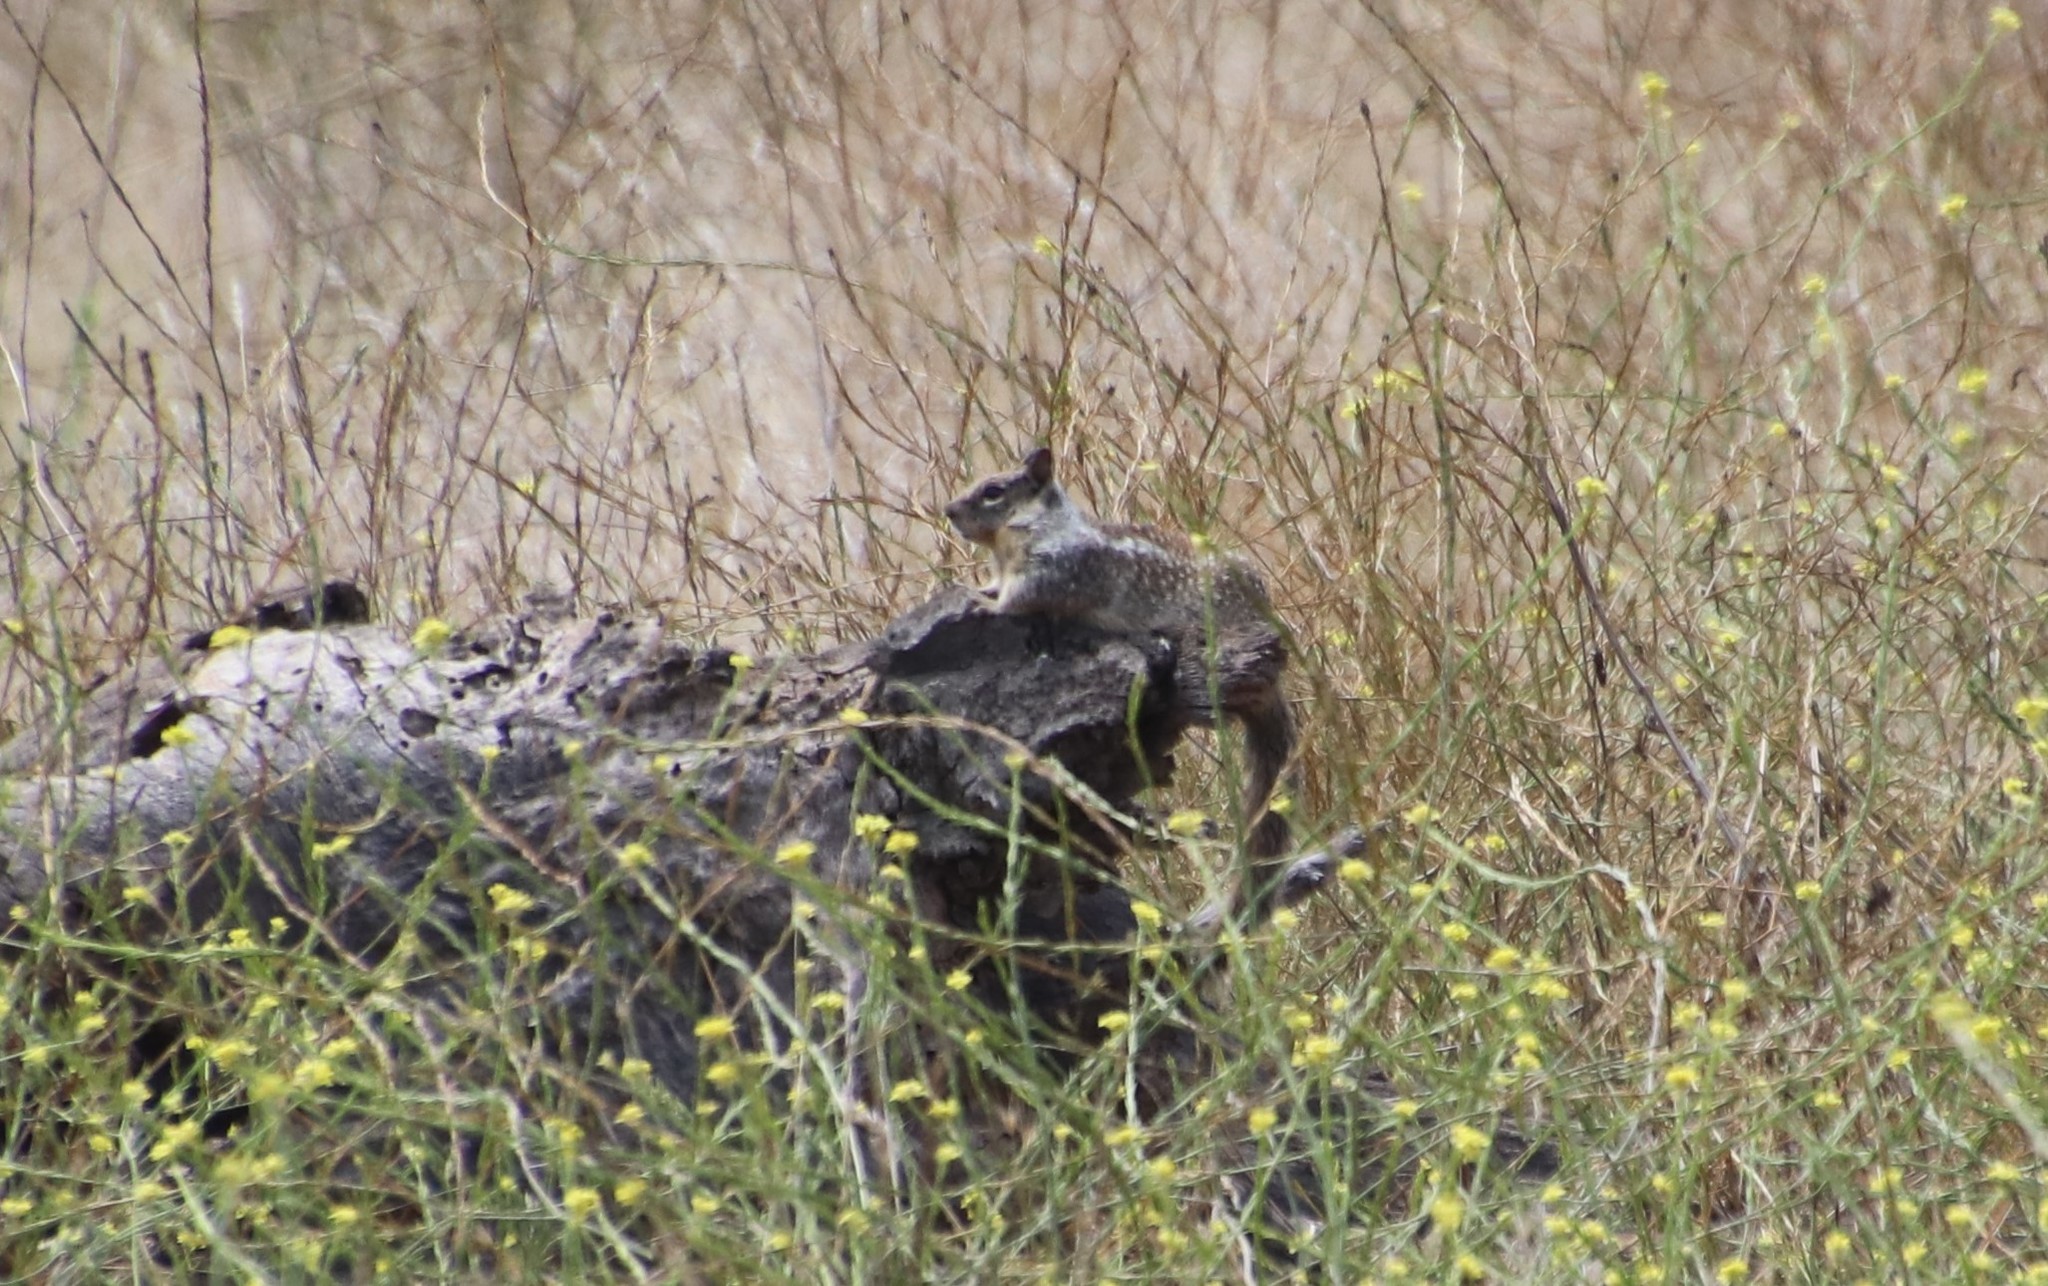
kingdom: Animalia
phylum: Chordata
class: Mammalia
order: Rodentia
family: Sciuridae
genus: Otospermophilus
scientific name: Otospermophilus beecheyi
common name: California ground squirrel
